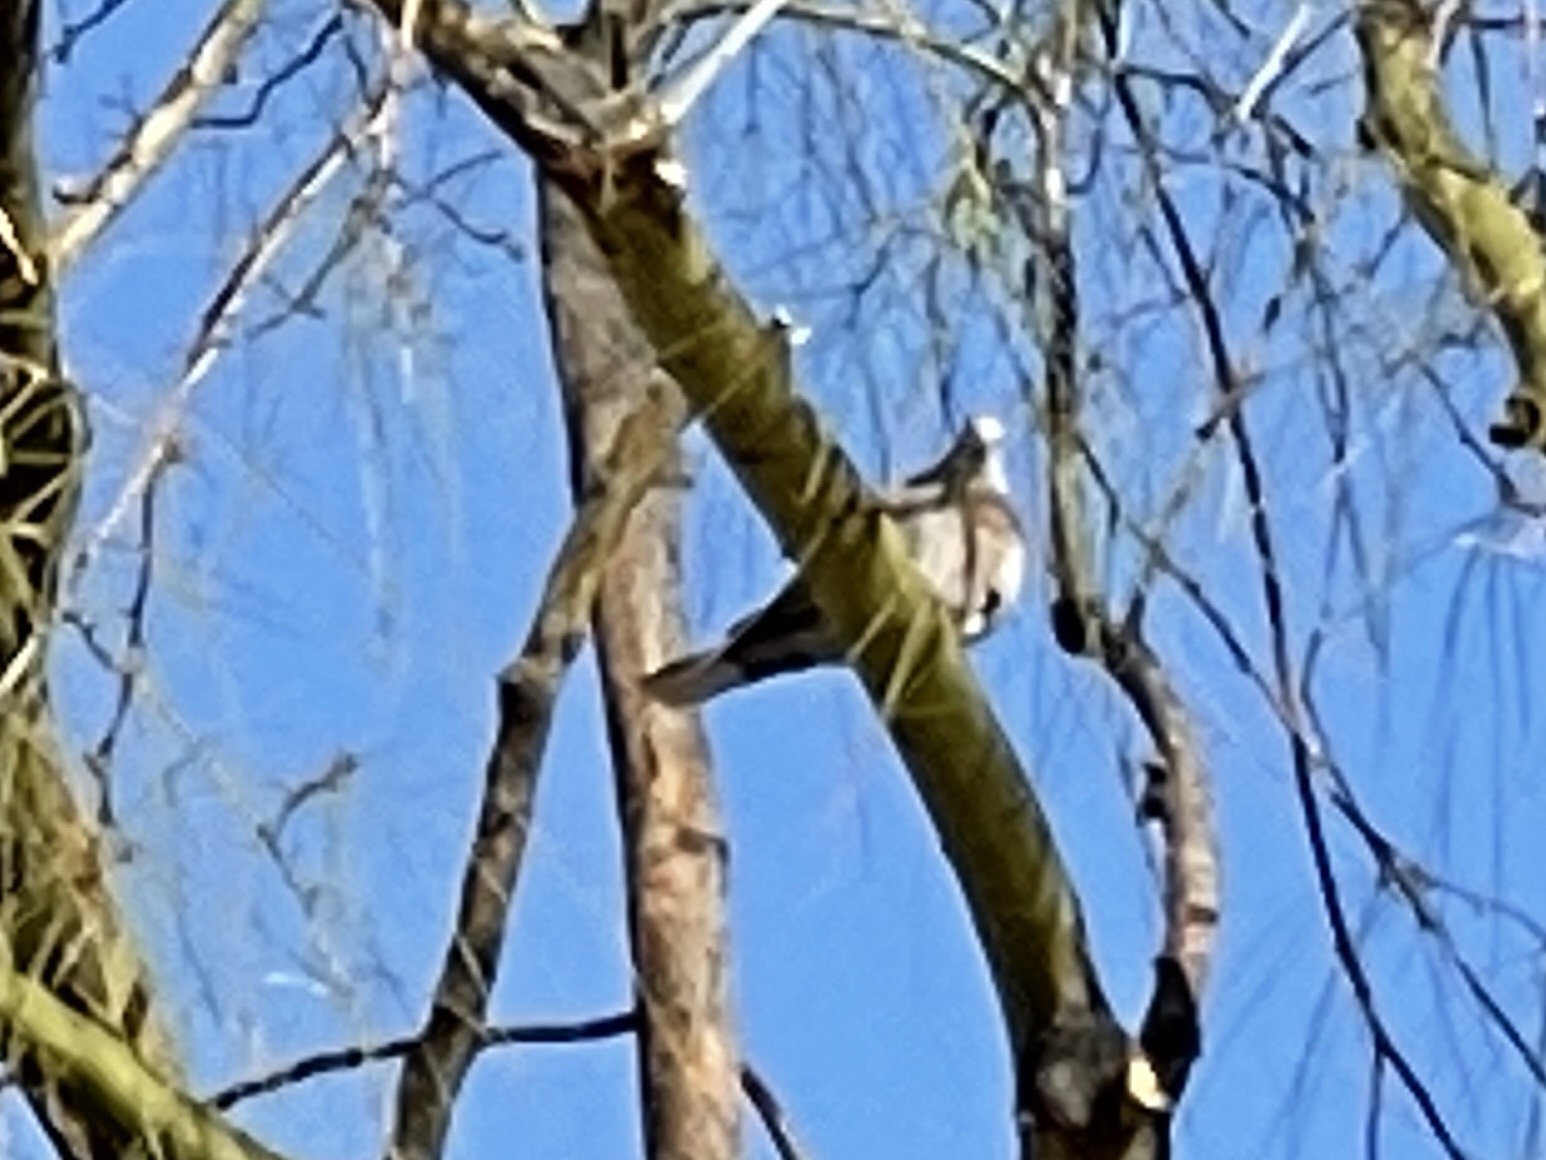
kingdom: Animalia
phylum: Chordata
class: Aves
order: Columbiformes
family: Columbidae
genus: Streptopelia
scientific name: Streptopelia decaocto
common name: Eurasian collared dove
